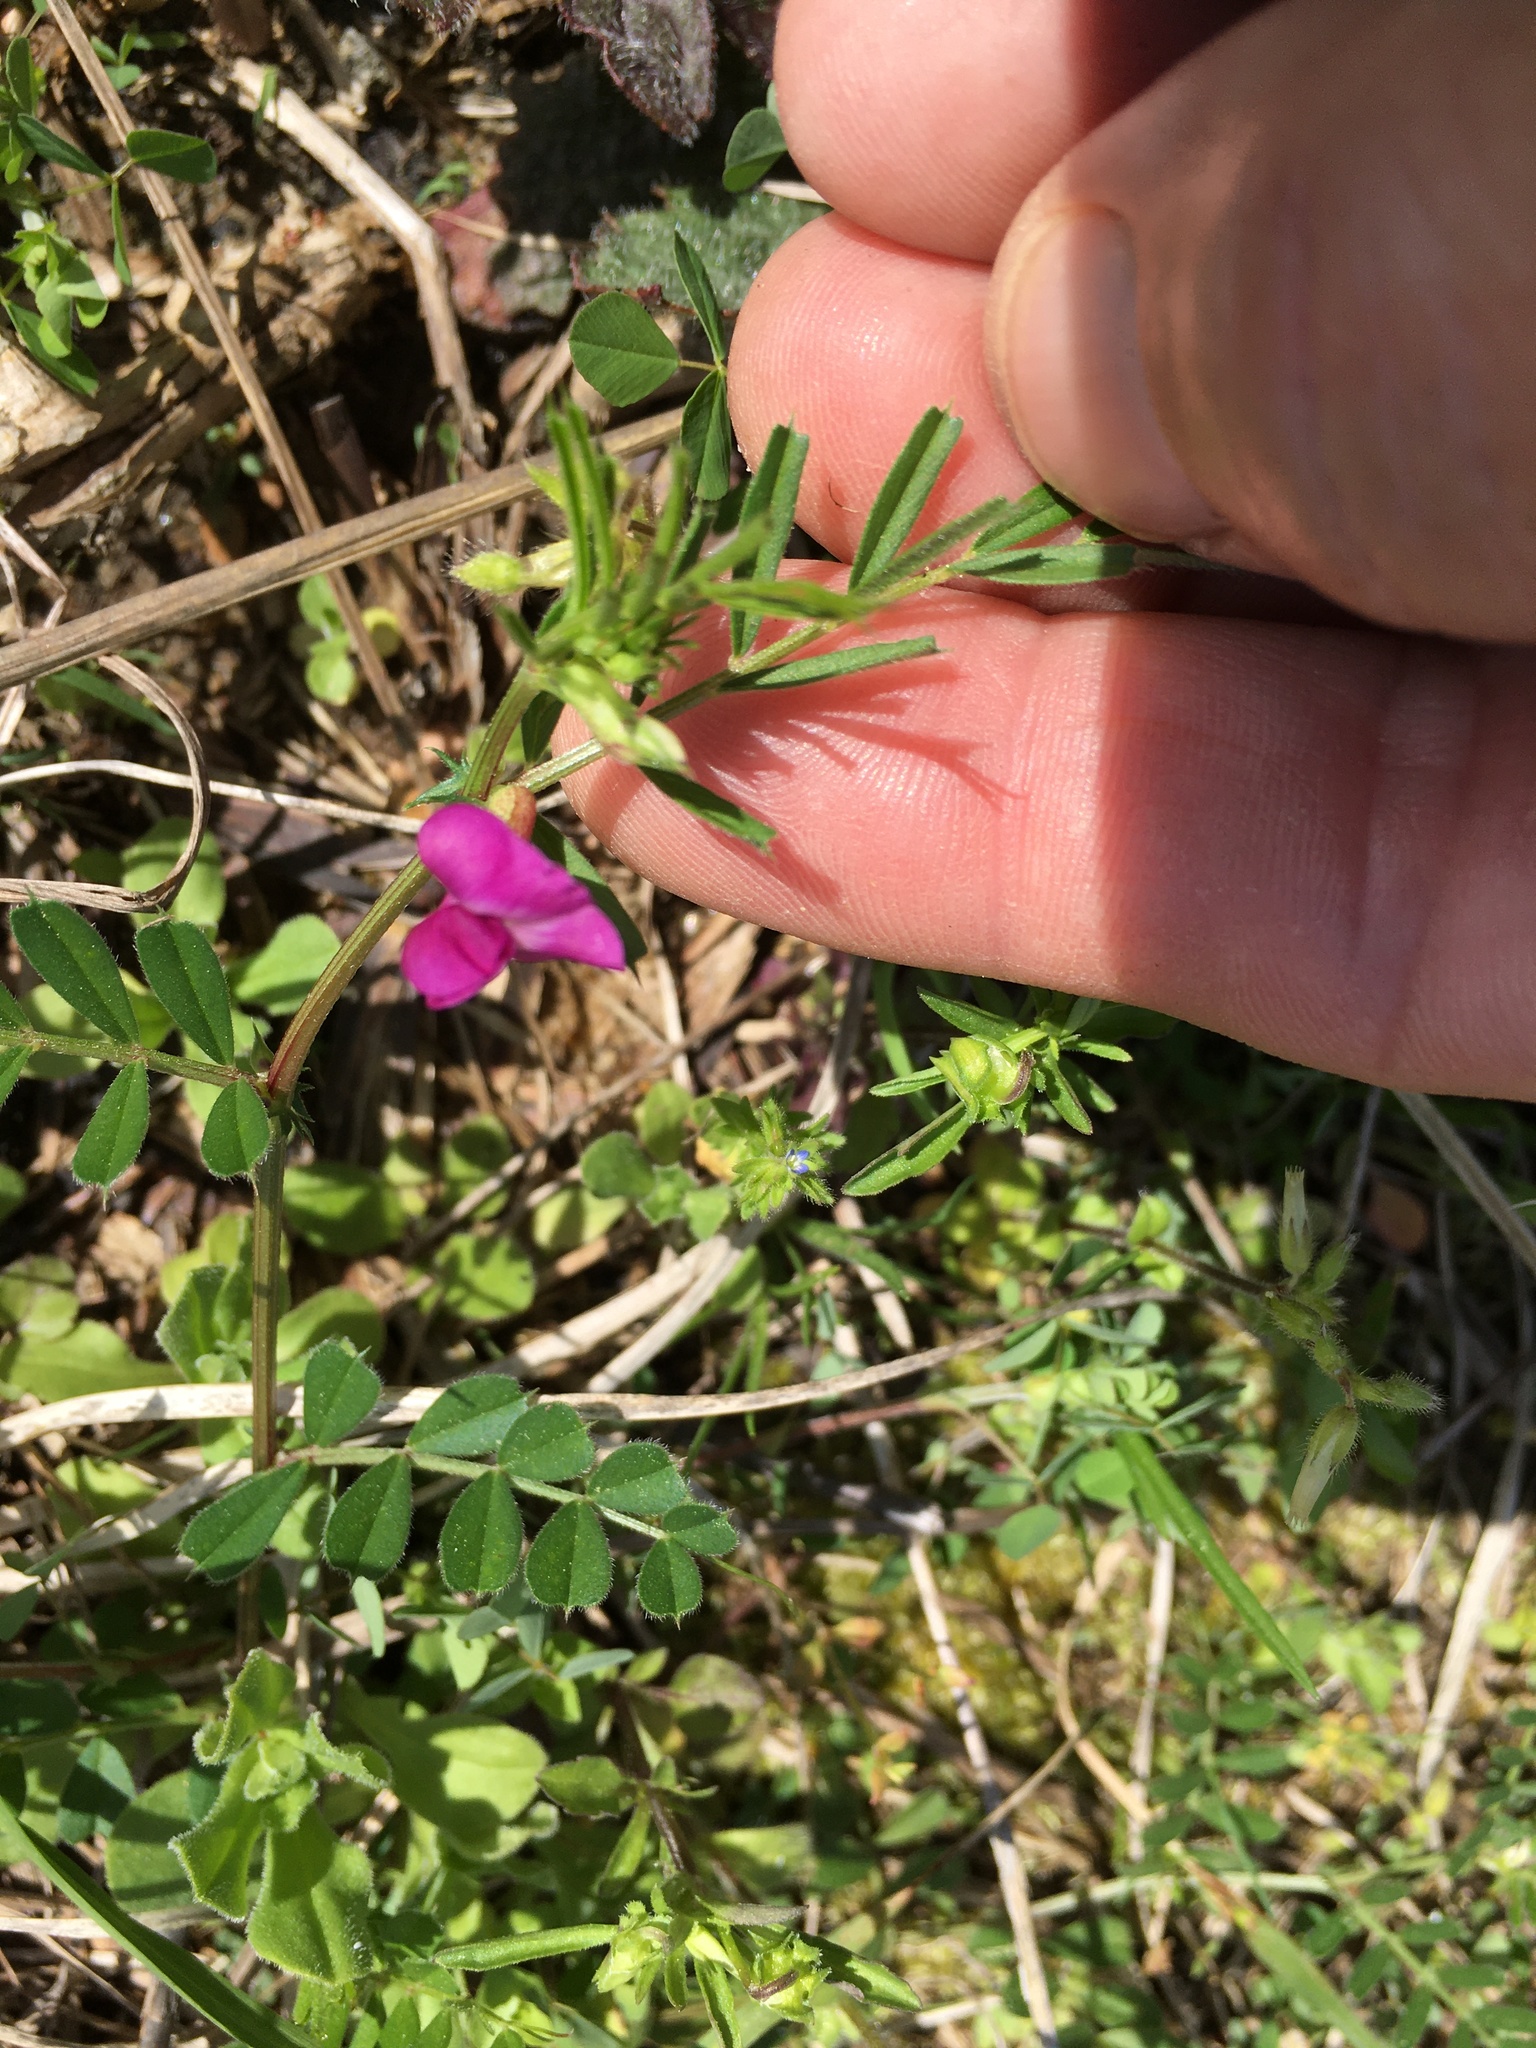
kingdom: Plantae
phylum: Tracheophyta
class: Magnoliopsida
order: Fabales
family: Fabaceae
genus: Vicia
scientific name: Vicia sativa
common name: Garden vetch
